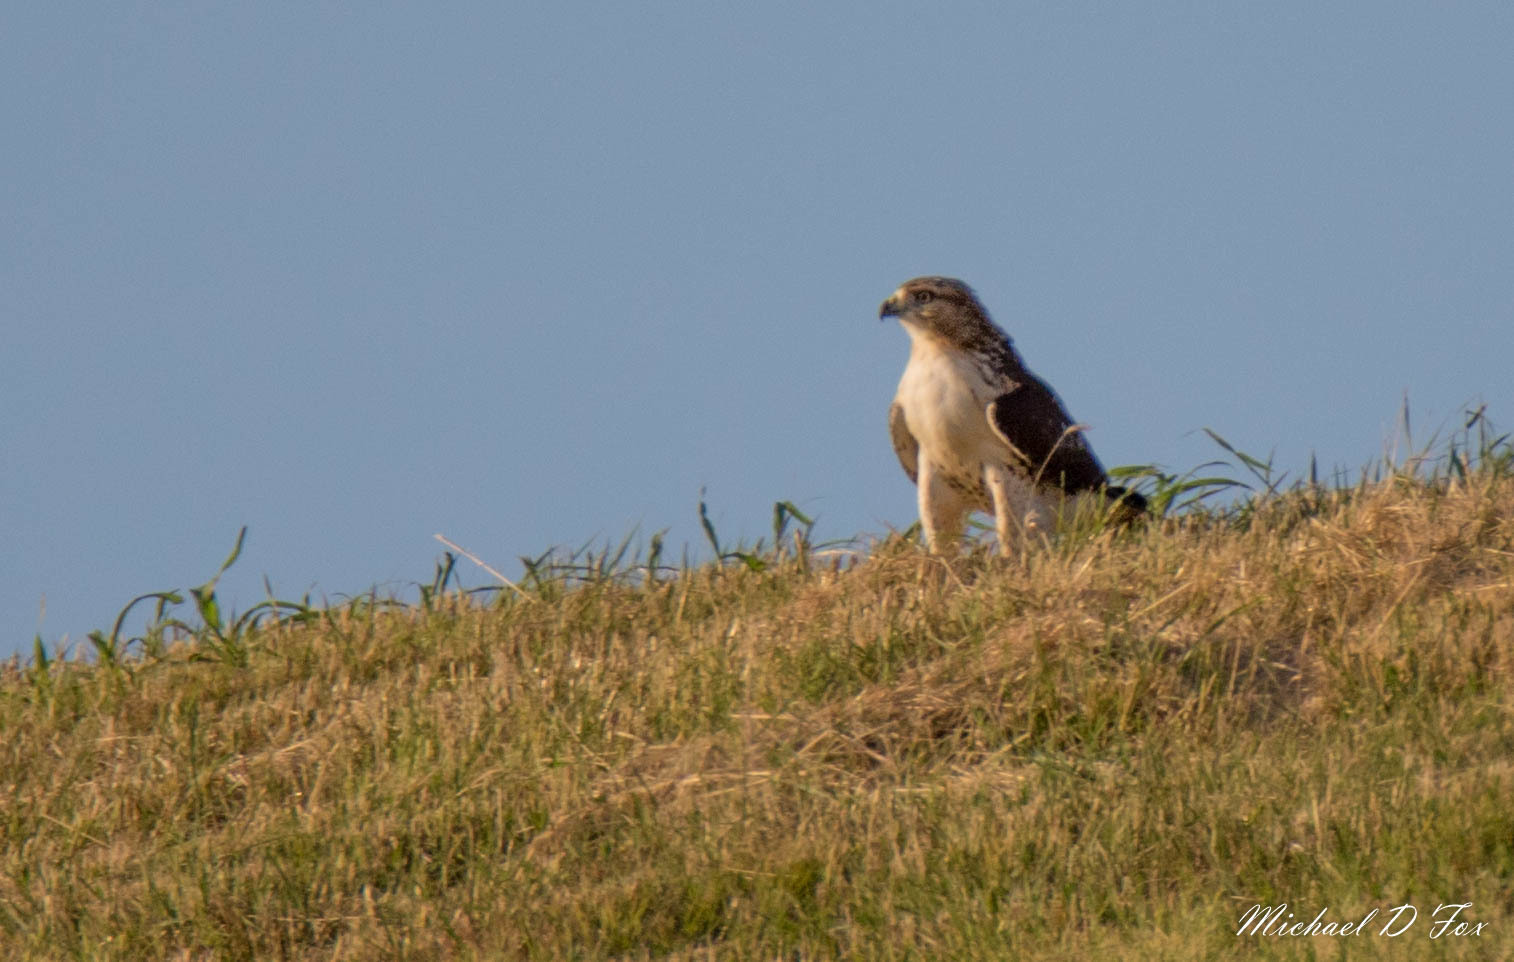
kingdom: Animalia
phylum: Chordata
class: Aves
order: Accipitriformes
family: Accipitridae
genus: Buteo
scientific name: Buteo jamaicensis
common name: Red-tailed hawk
